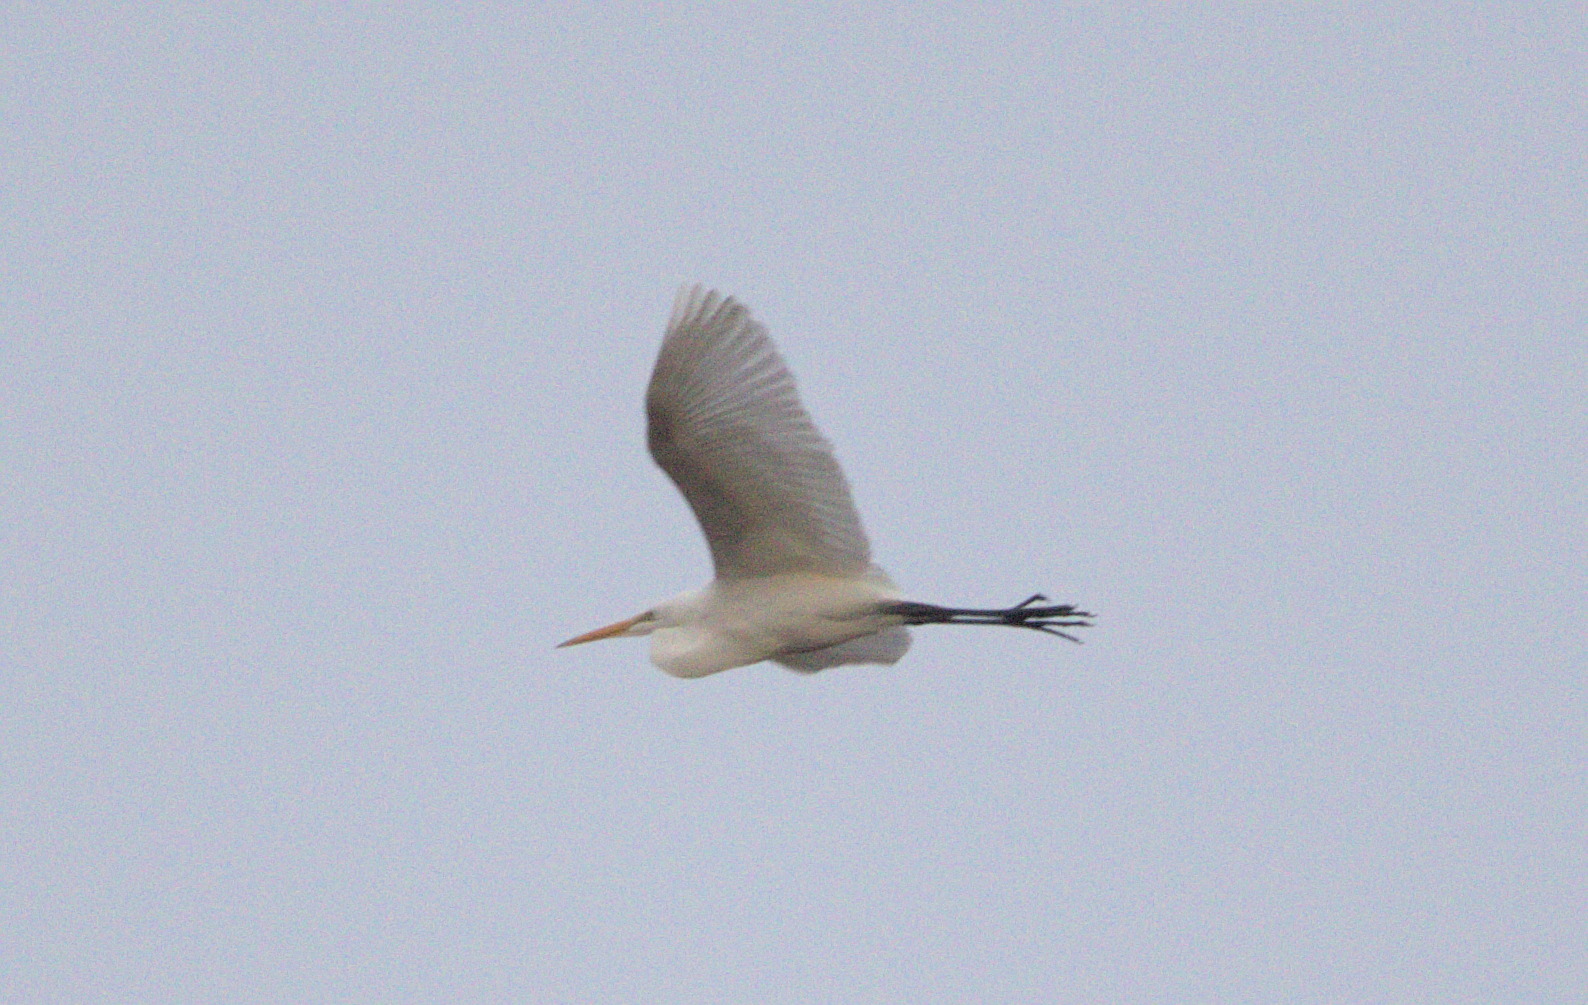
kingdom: Animalia
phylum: Chordata
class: Aves
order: Pelecaniformes
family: Ardeidae
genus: Ardea
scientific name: Ardea alba
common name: Great egret
